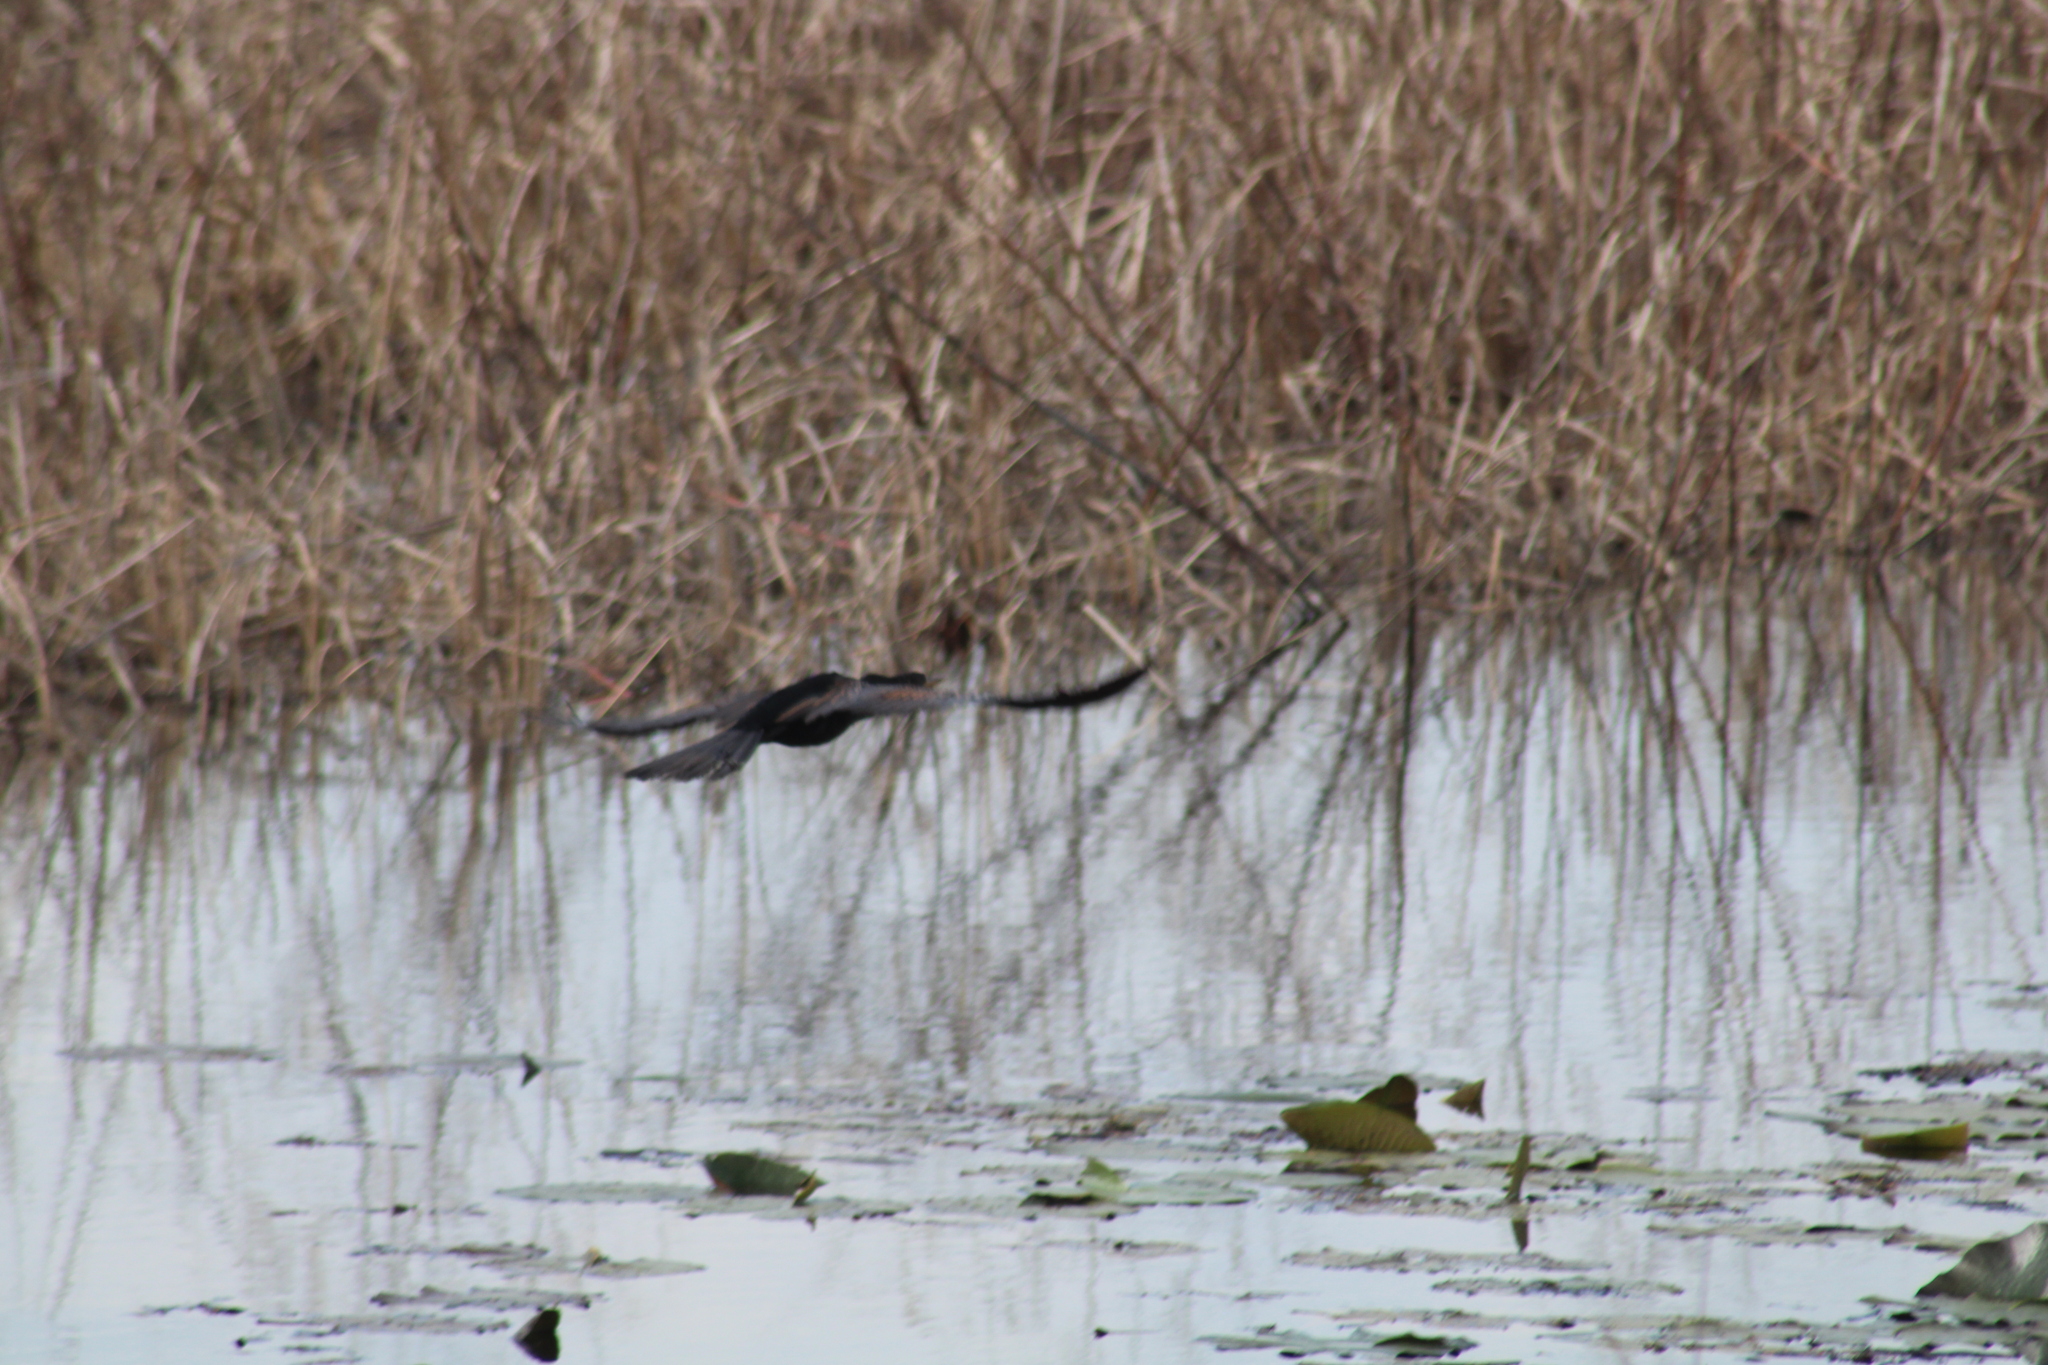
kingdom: Animalia
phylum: Chordata
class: Aves
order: Suliformes
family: Anhingidae
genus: Anhinga
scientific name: Anhinga anhinga
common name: Anhinga
